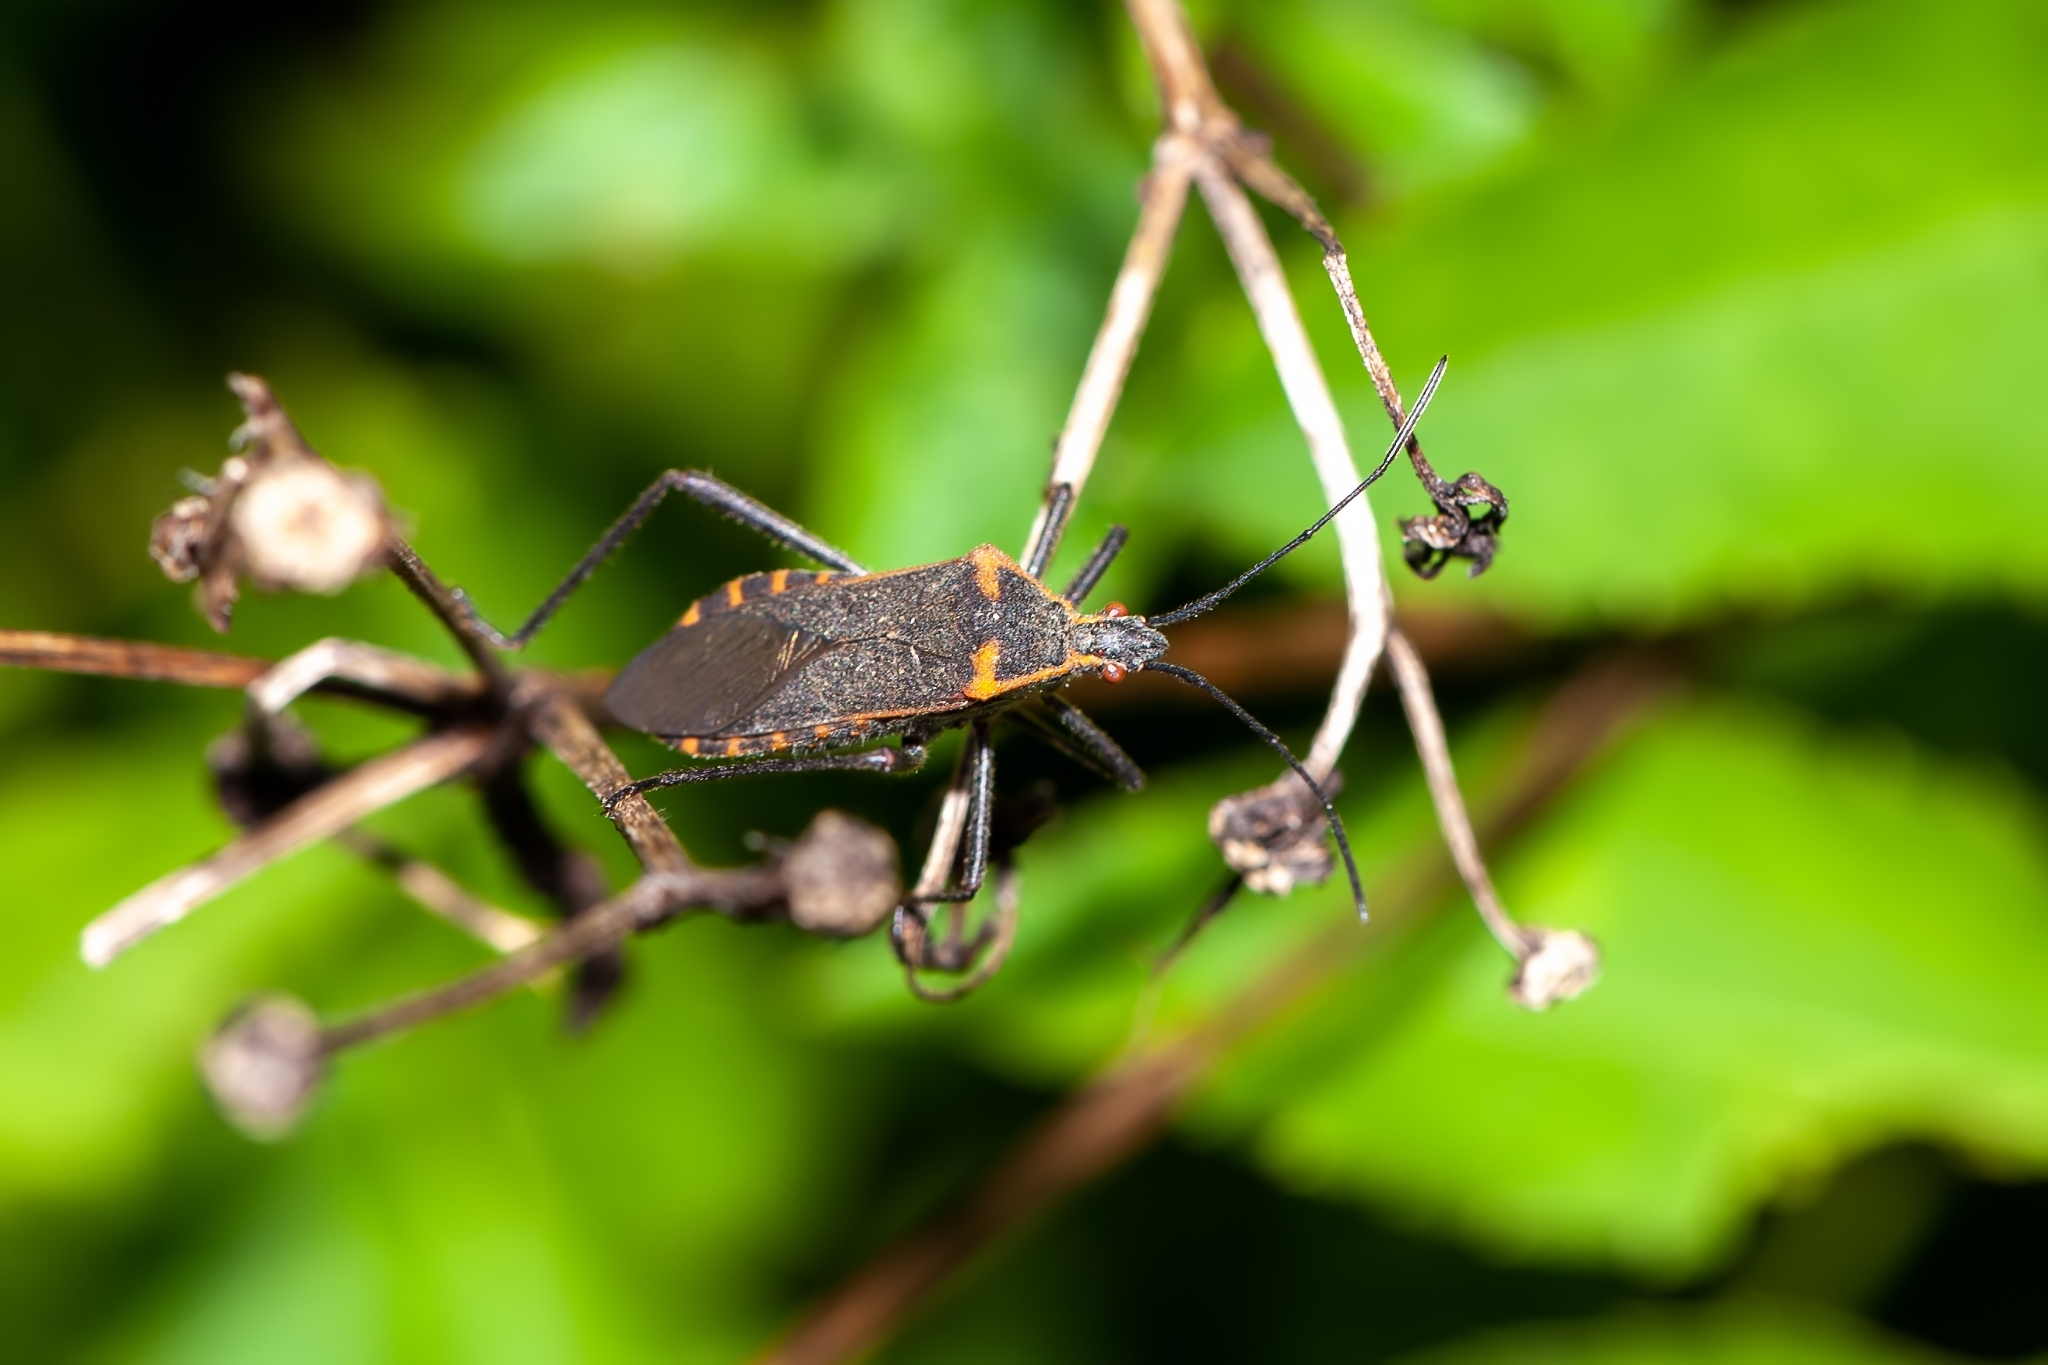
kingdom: Animalia
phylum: Arthropoda
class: Insecta
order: Hemiptera
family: Coreidae
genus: Phthiacnemia
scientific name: Phthiacnemia picta
